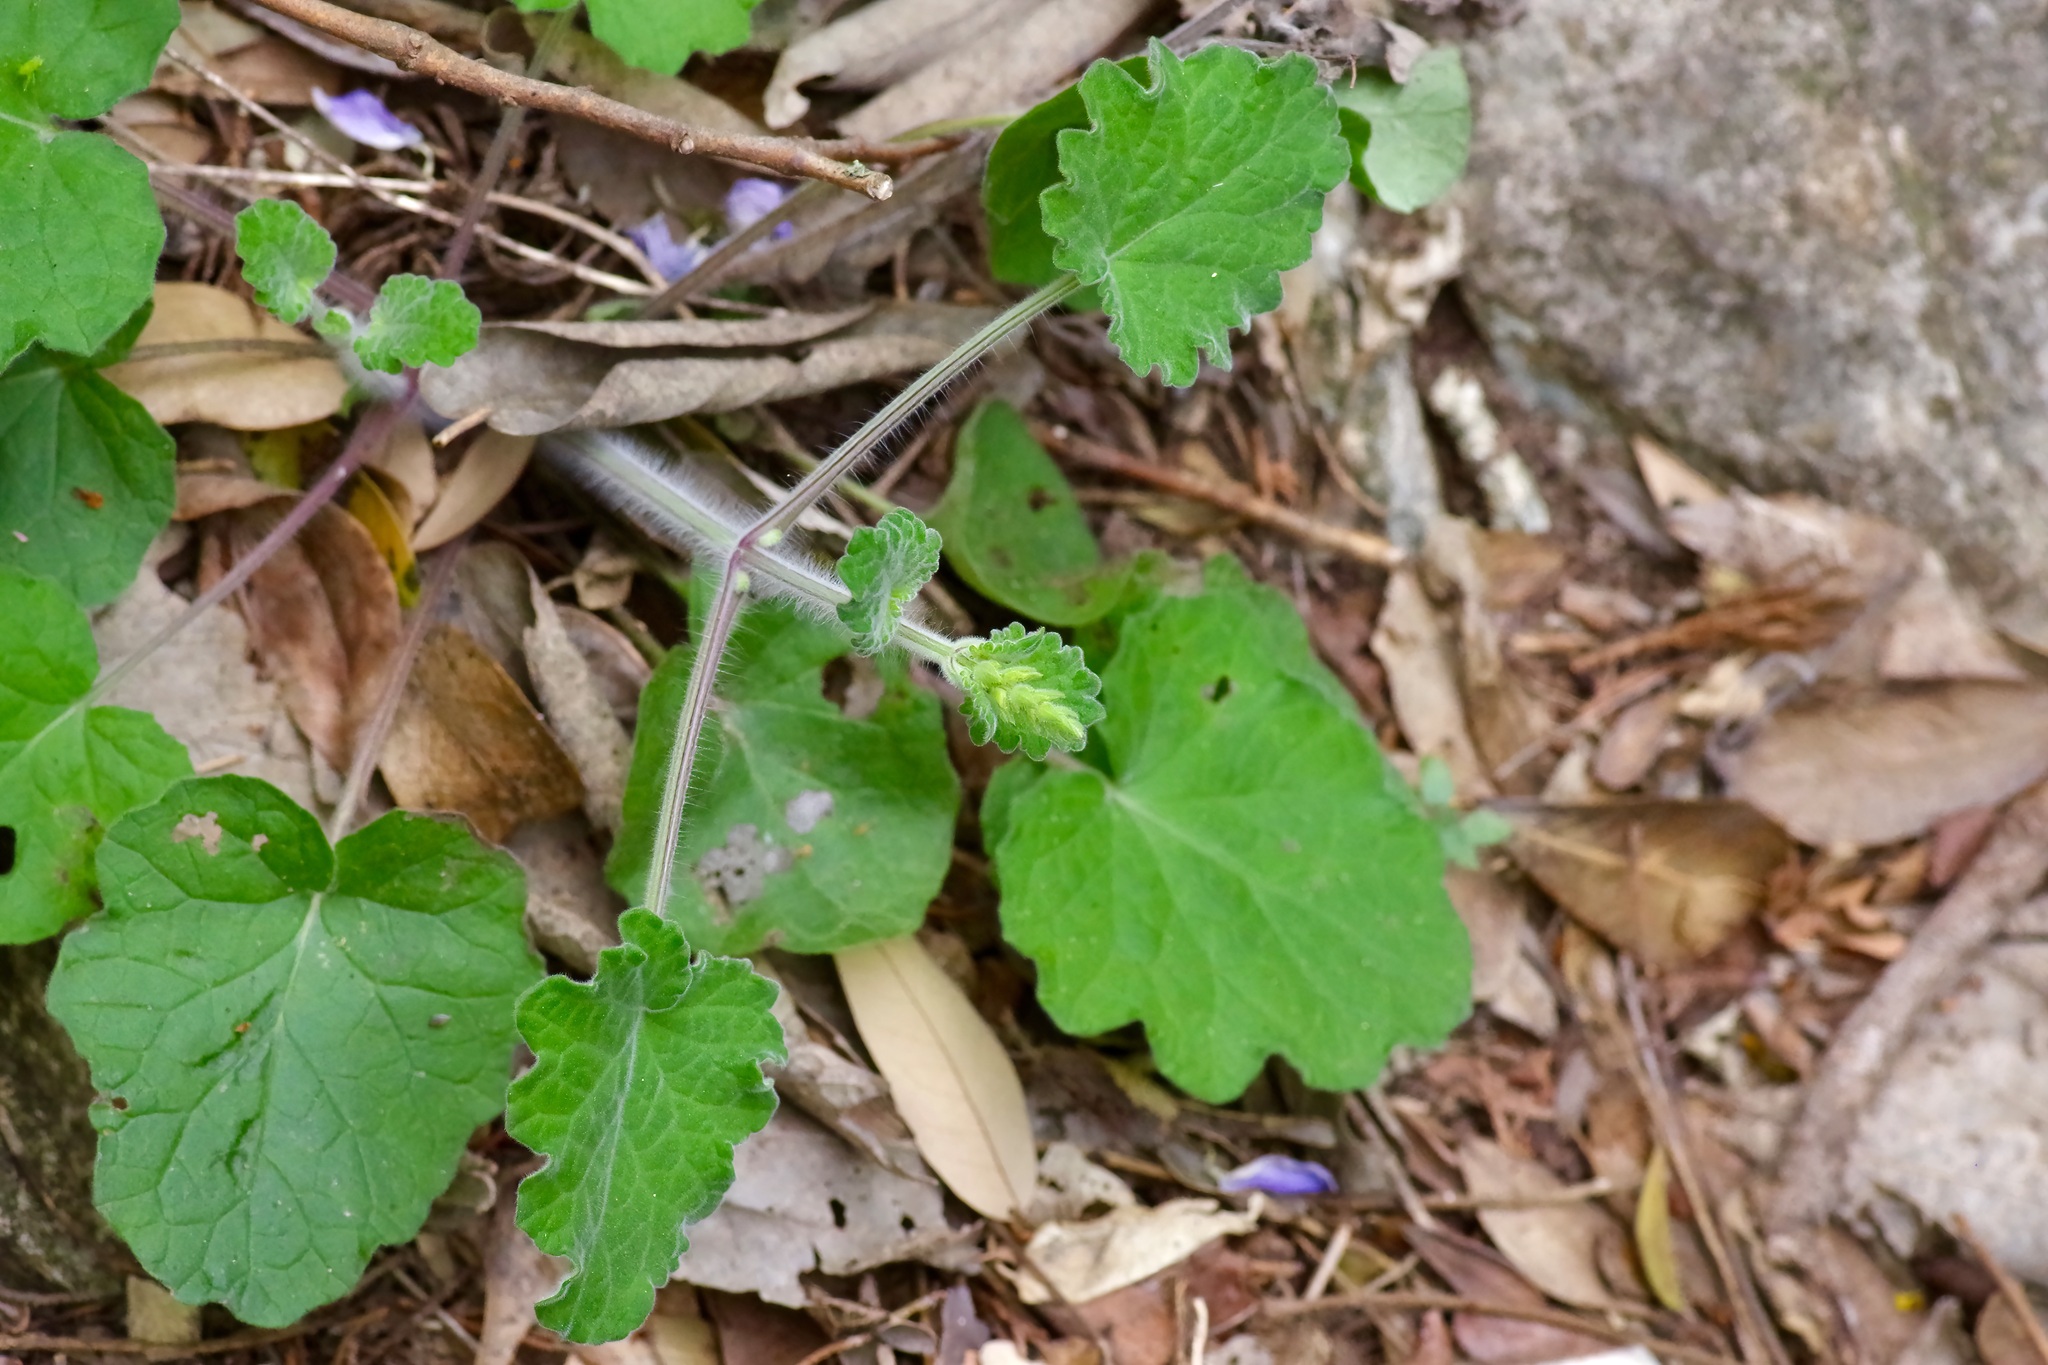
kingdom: Plantae
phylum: Tracheophyta
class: Magnoliopsida
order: Lamiales
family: Lamiaceae
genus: Salvia
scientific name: Salvia roemeriana
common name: Cedar sage
